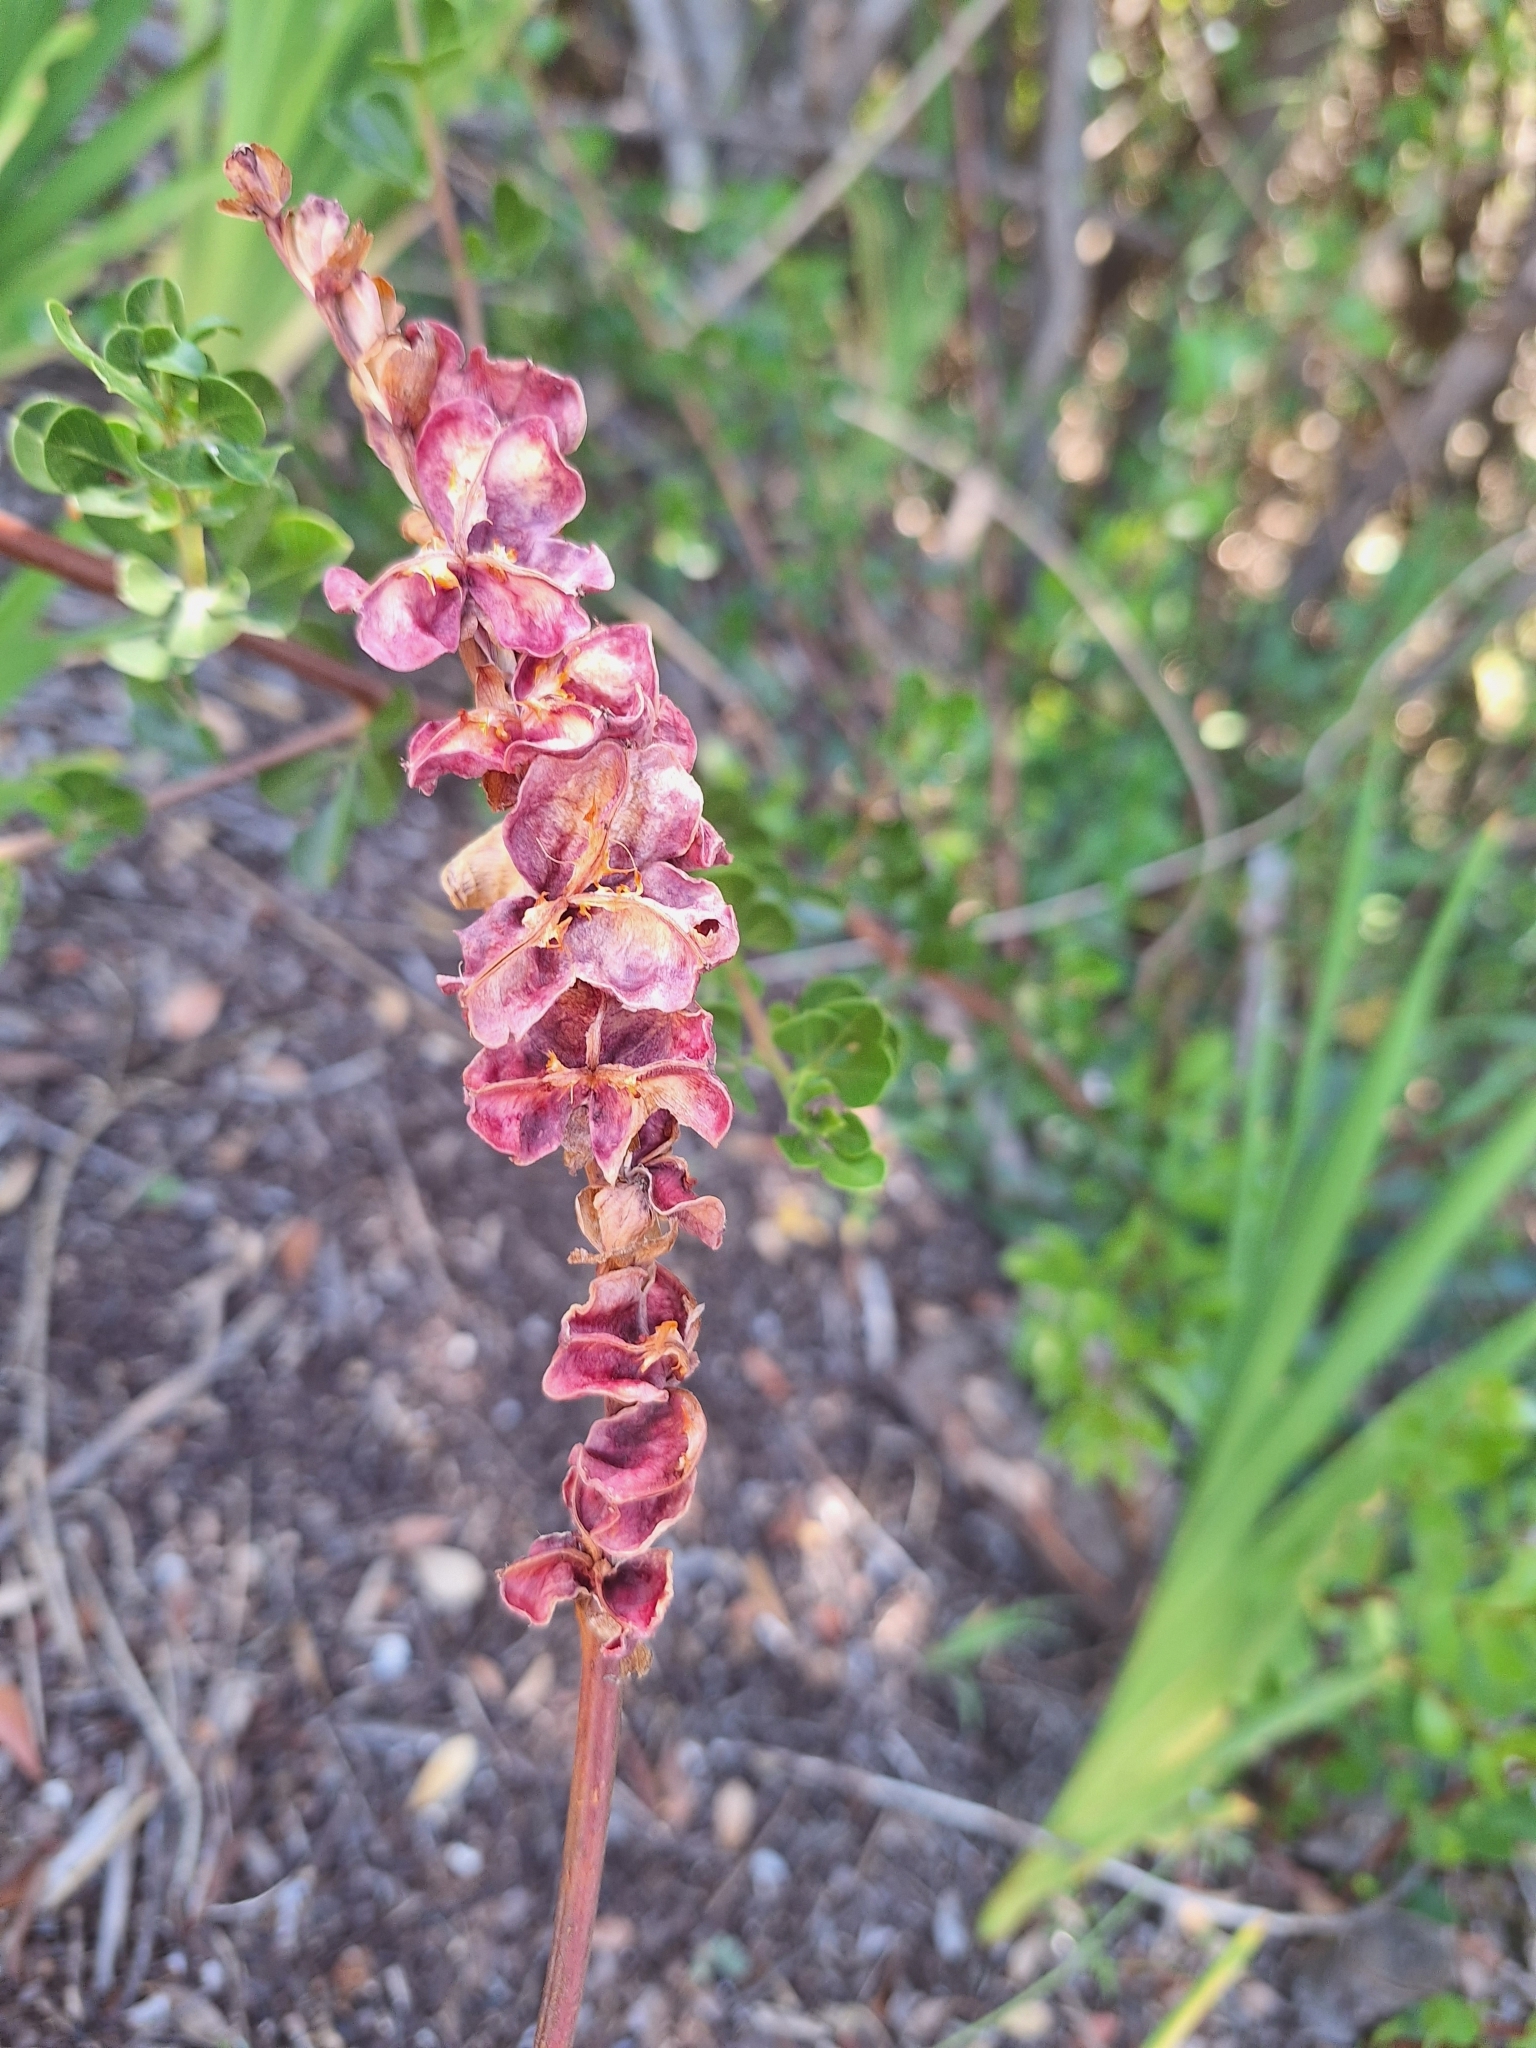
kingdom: Plantae
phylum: Tracheophyta
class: Liliopsida
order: Asparagales
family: Iridaceae
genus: Chasmanthe
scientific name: Chasmanthe aethiopica
